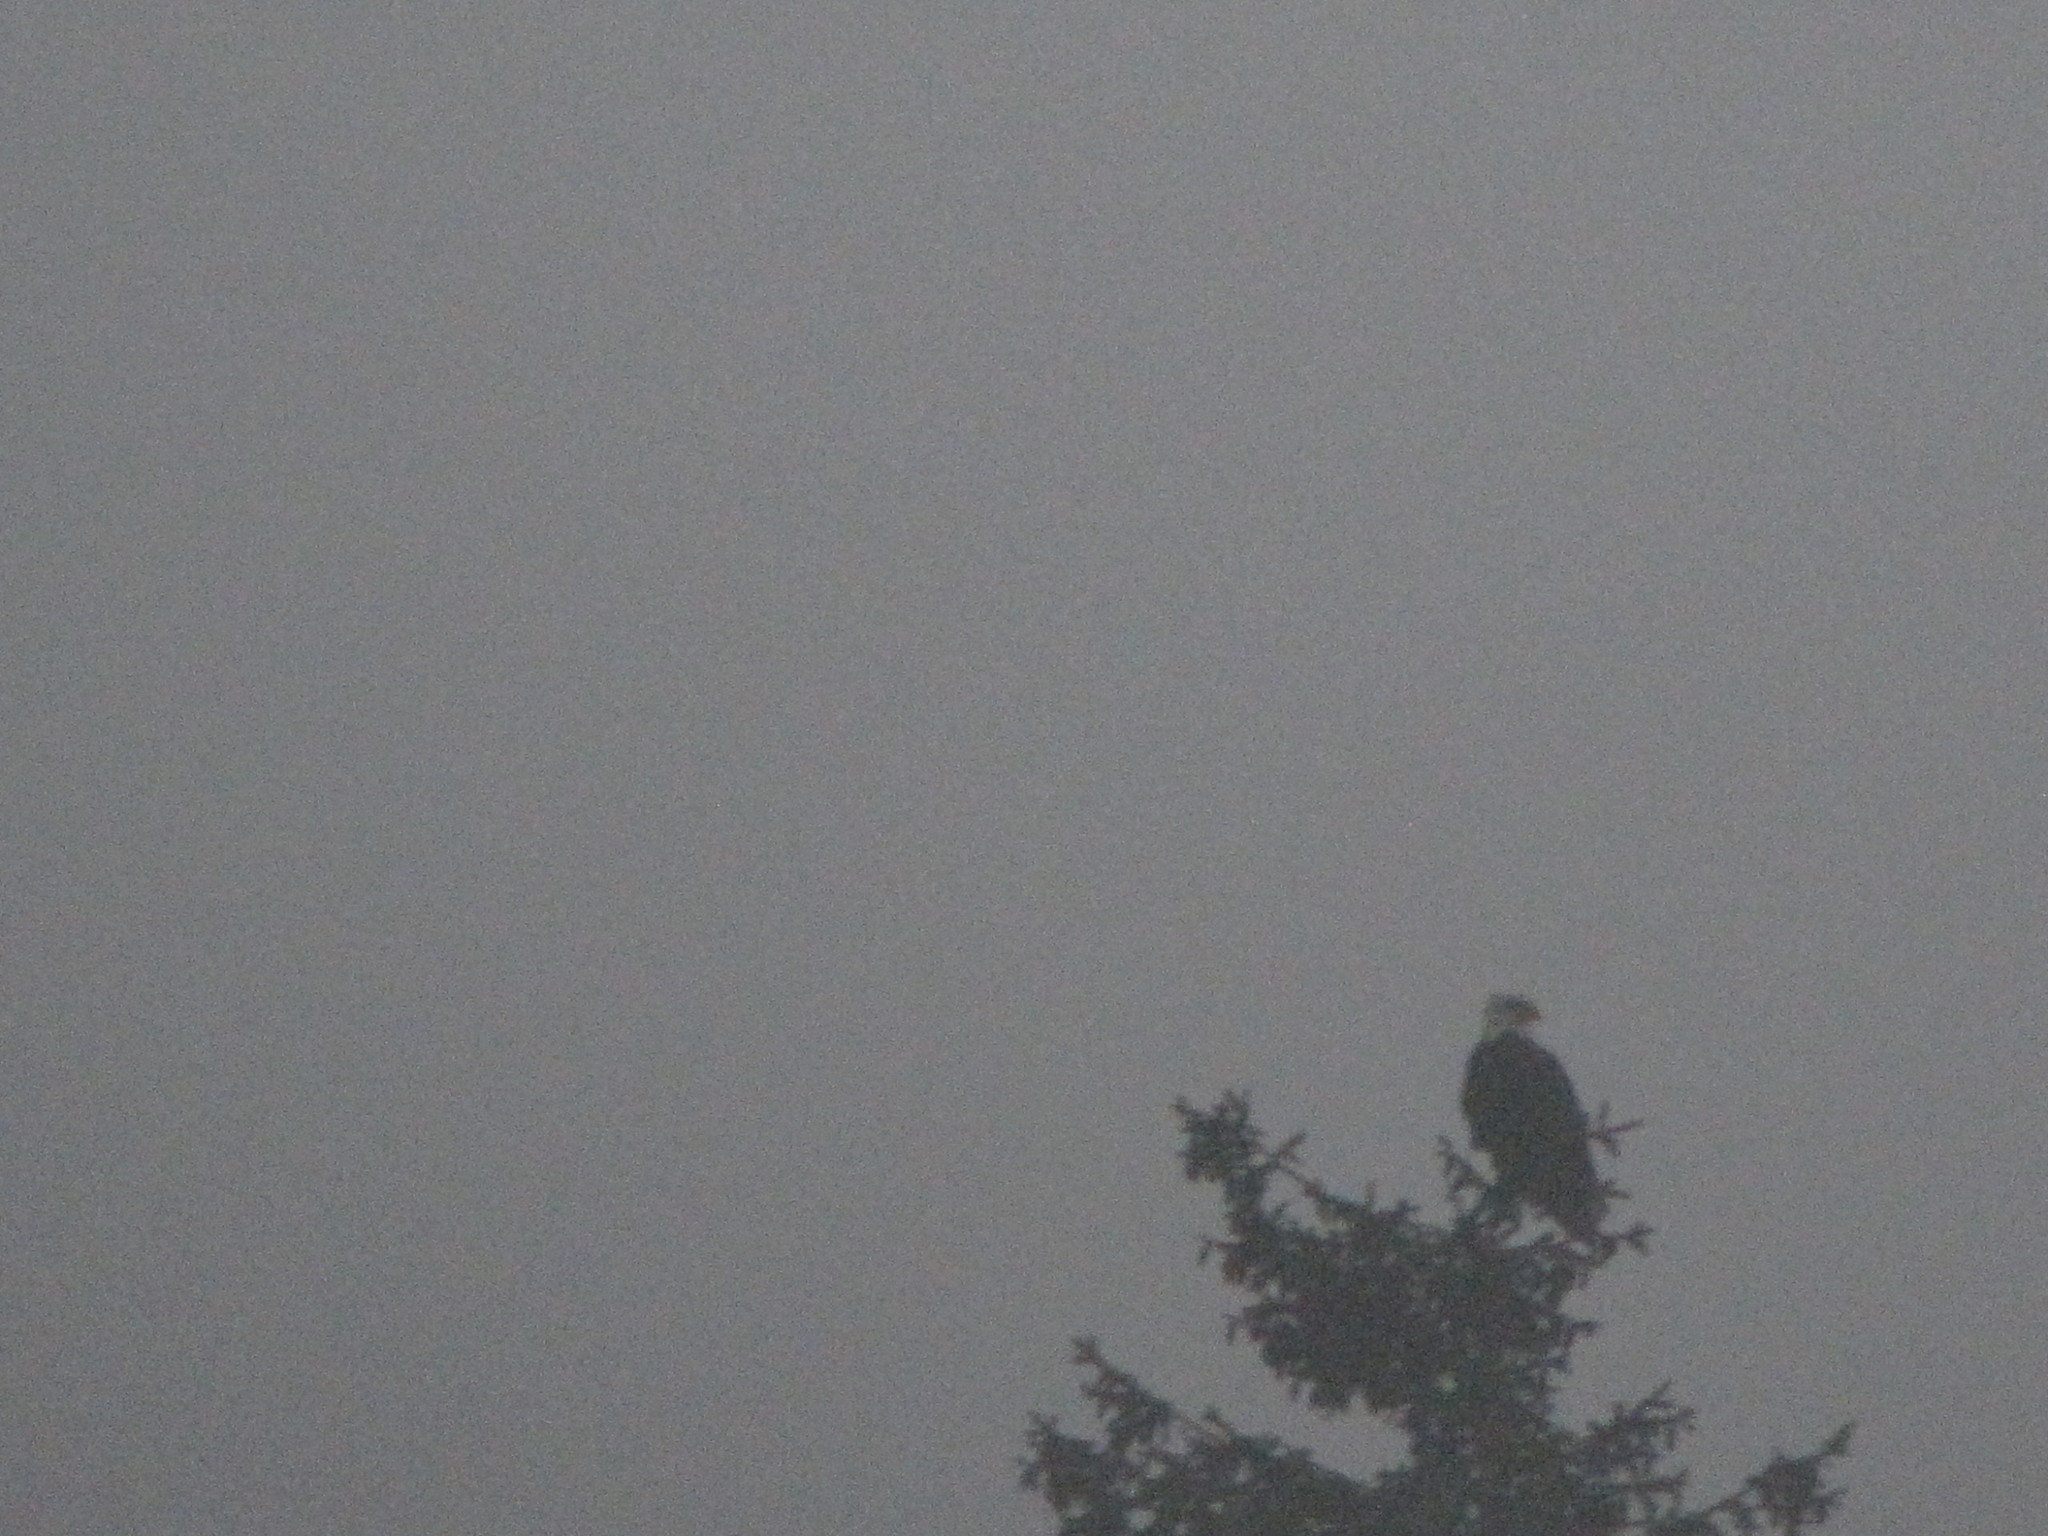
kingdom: Animalia
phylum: Chordata
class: Aves
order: Accipitriformes
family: Accipitridae
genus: Haliaeetus
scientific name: Haliaeetus leucocephalus
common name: Bald eagle
